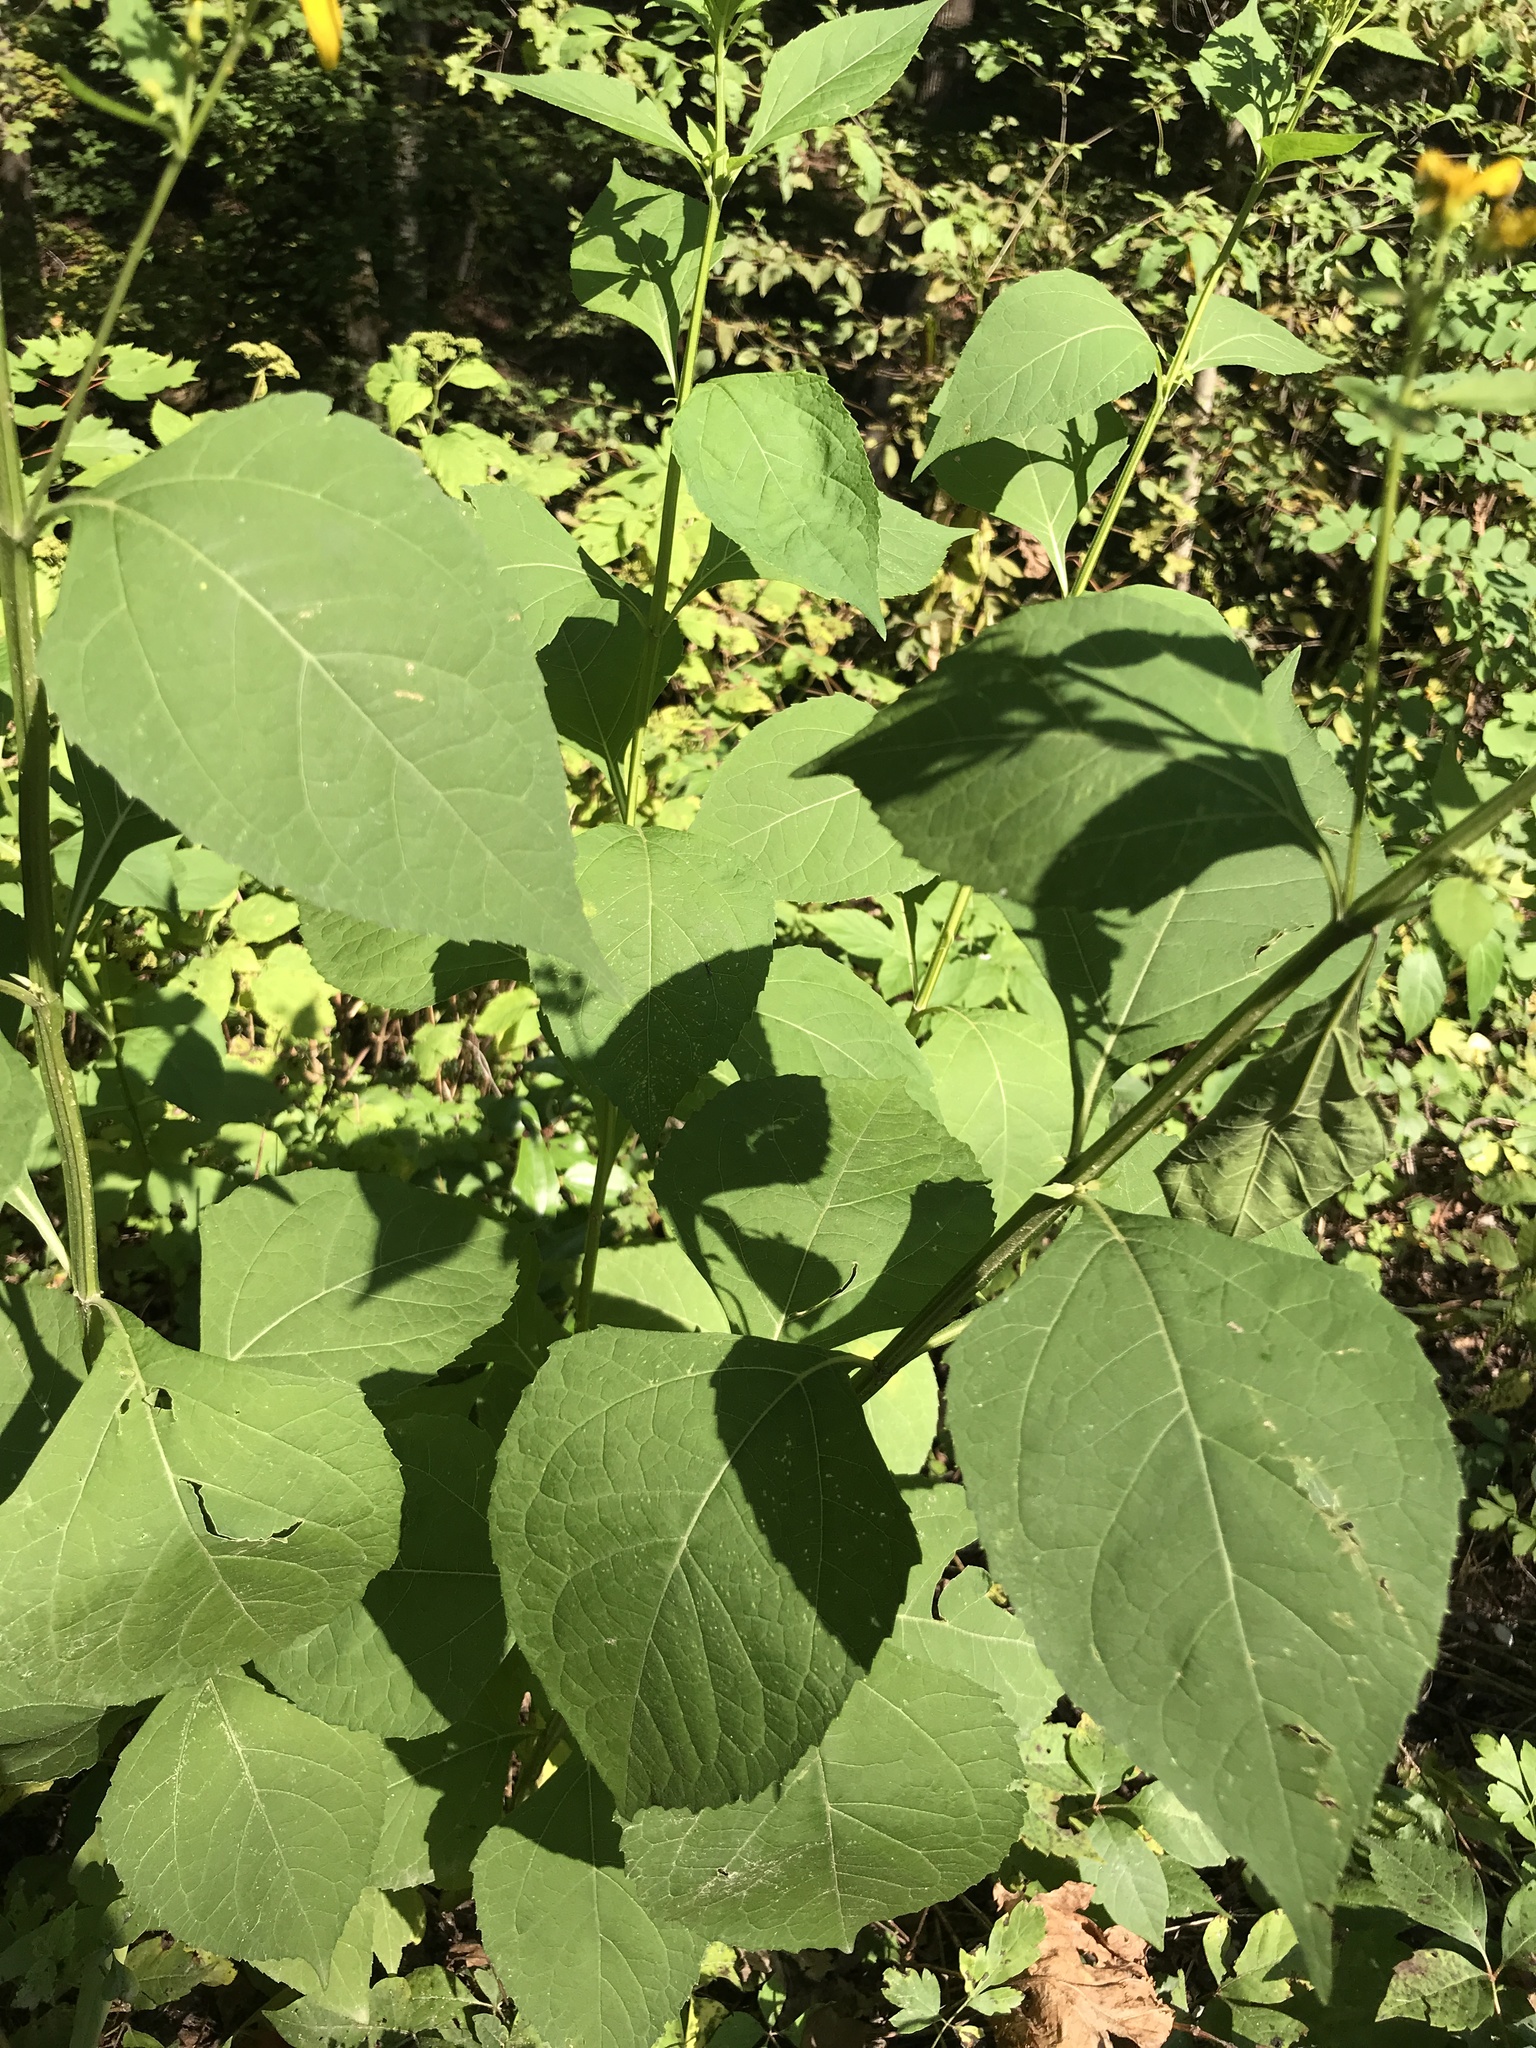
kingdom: Plantae
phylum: Tracheophyta
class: Magnoliopsida
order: Asterales
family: Asteraceae
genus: Verbesina
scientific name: Verbesina occidentalis
